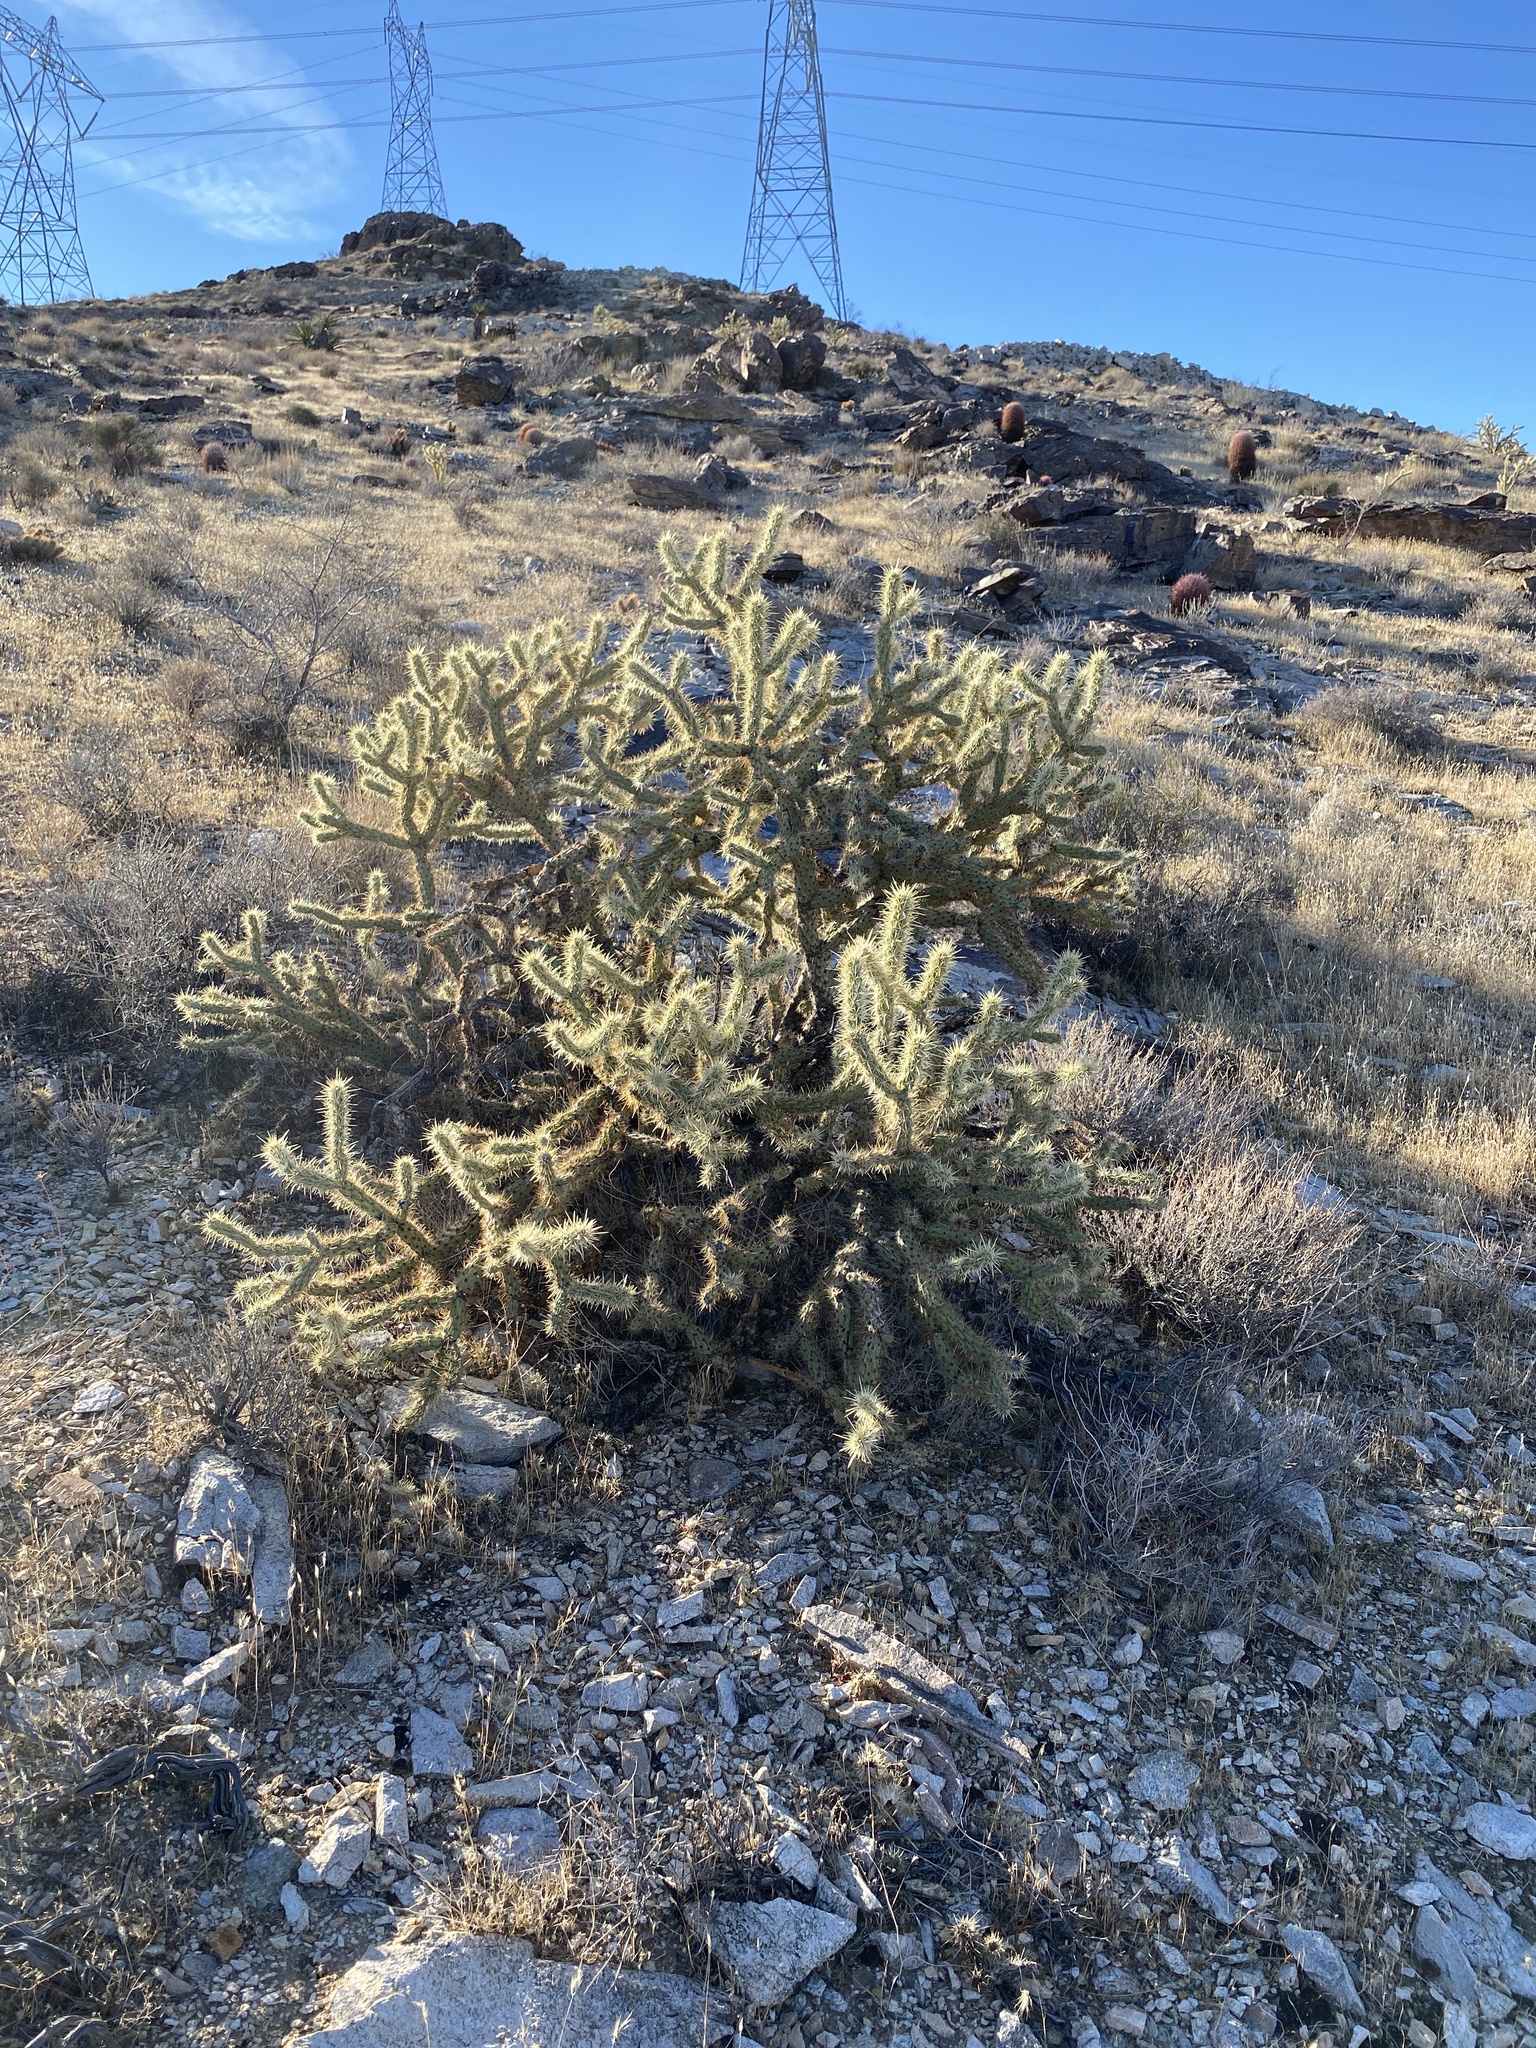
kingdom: Plantae
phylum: Tracheophyta
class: Magnoliopsida
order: Caryophyllales
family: Cactaceae
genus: Cylindropuntia
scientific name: Cylindropuntia acanthocarpa
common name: Buckhorn cholla
